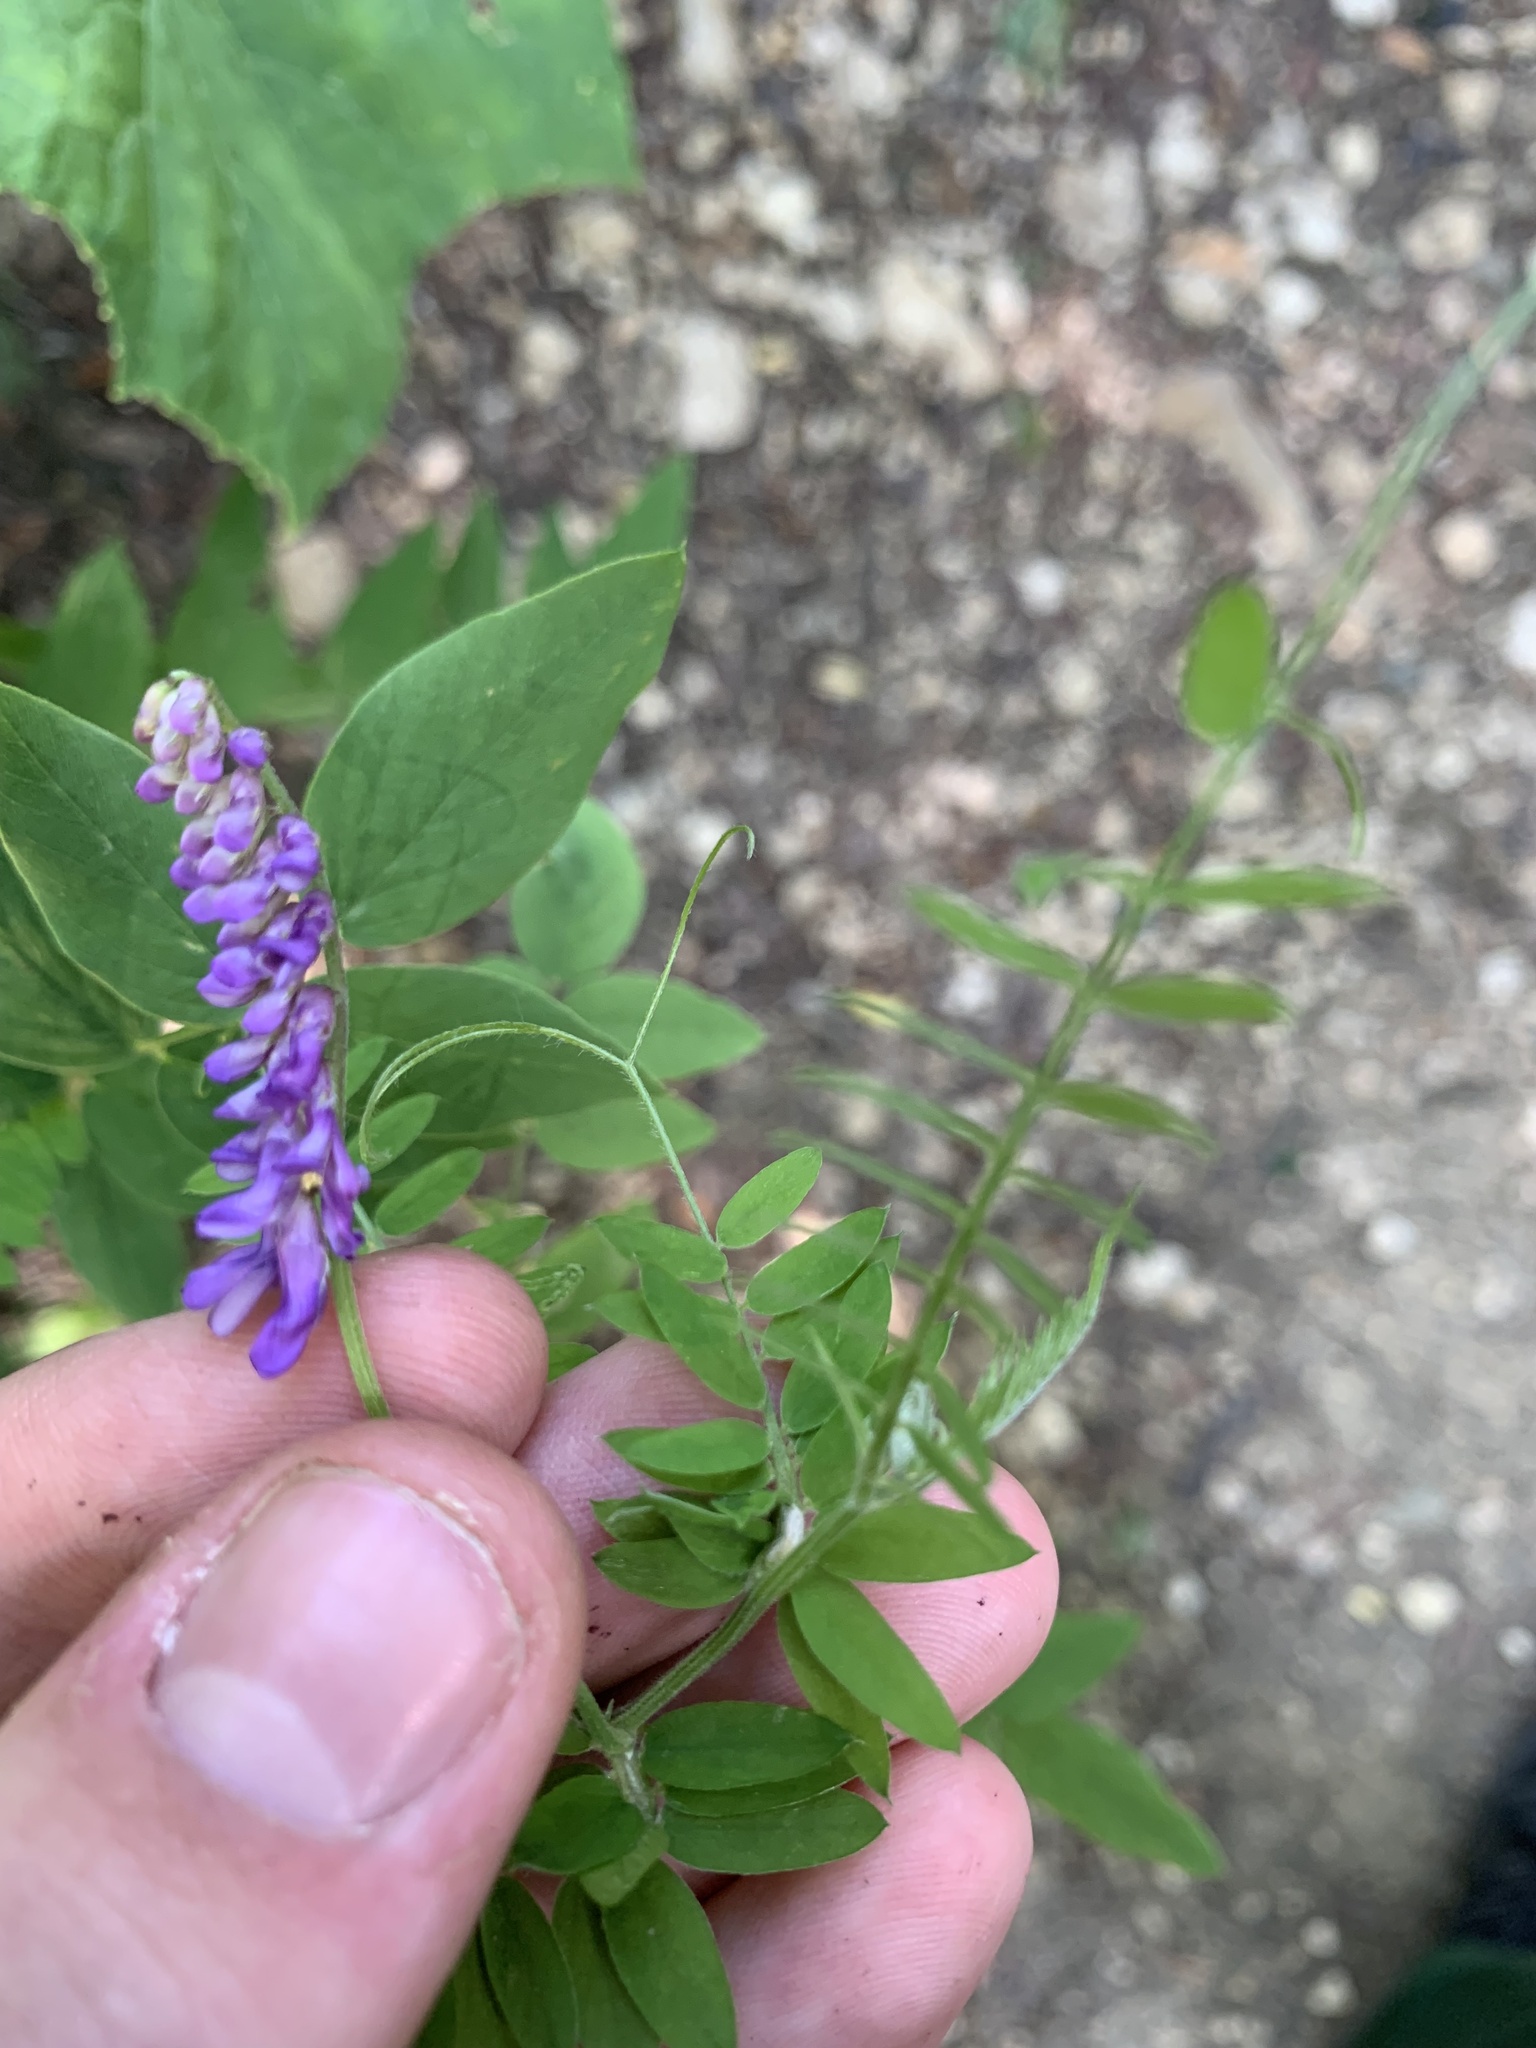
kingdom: Plantae
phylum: Tracheophyta
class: Magnoliopsida
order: Fabales
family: Fabaceae
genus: Vicia
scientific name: Vicia cracca
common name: Bird vetch
